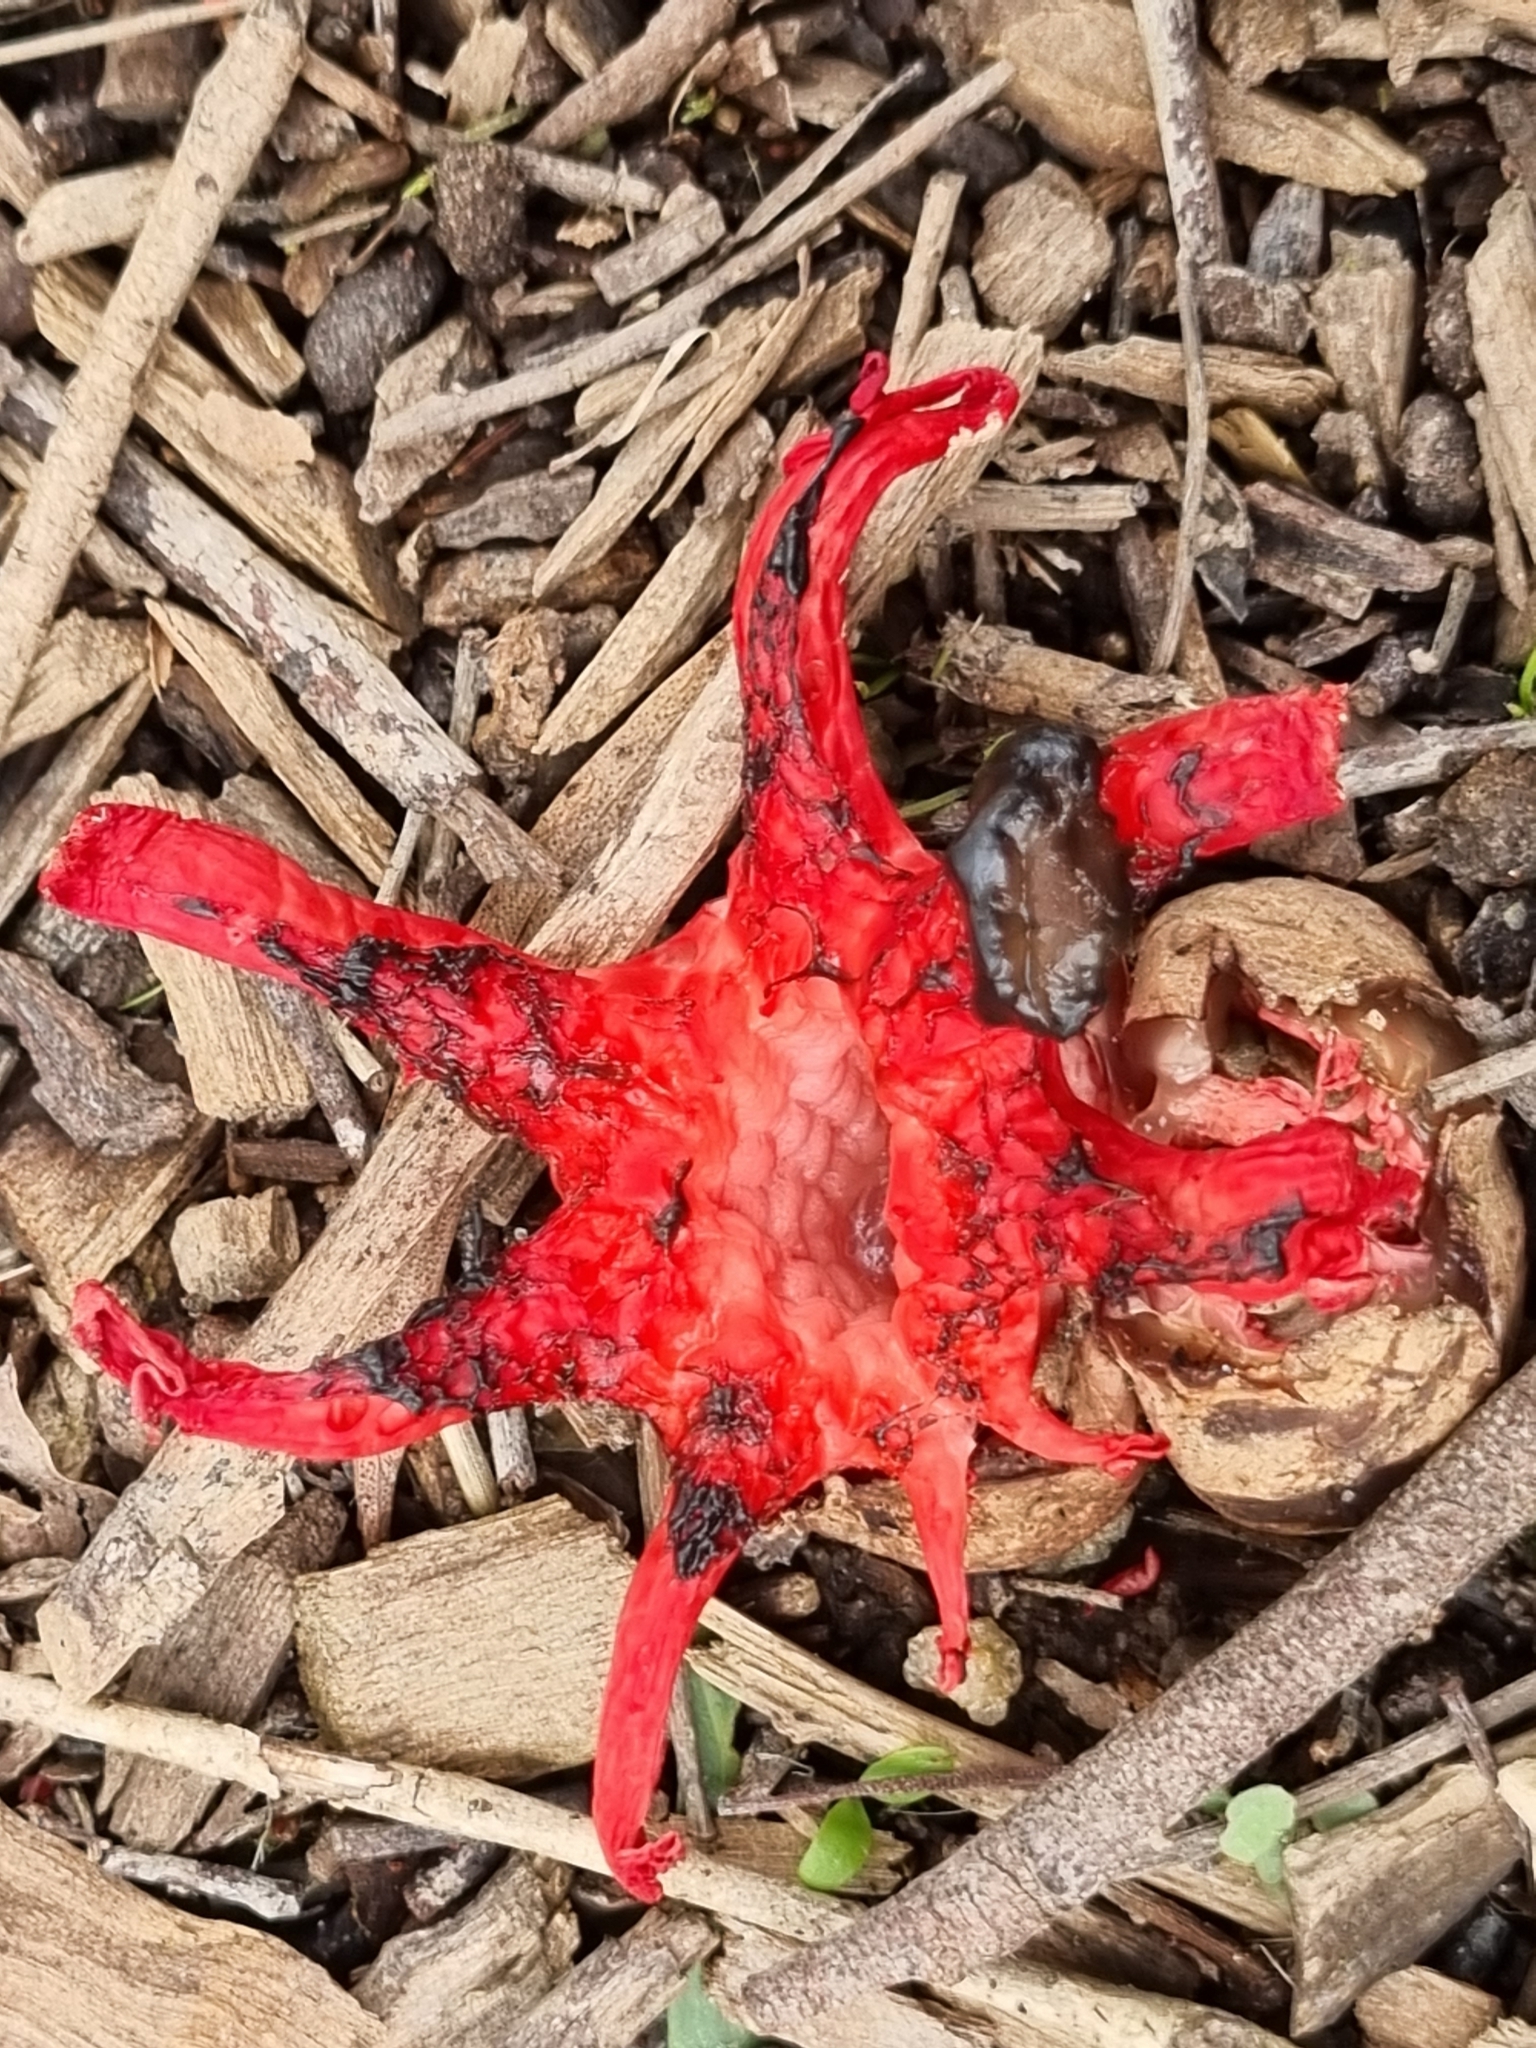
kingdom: Fungi
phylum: Basidiomycota
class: Agaricomycetes
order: Phallales
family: Phallaceae
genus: Aseroe
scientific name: Aseroe rubra
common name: Starfish fungus
